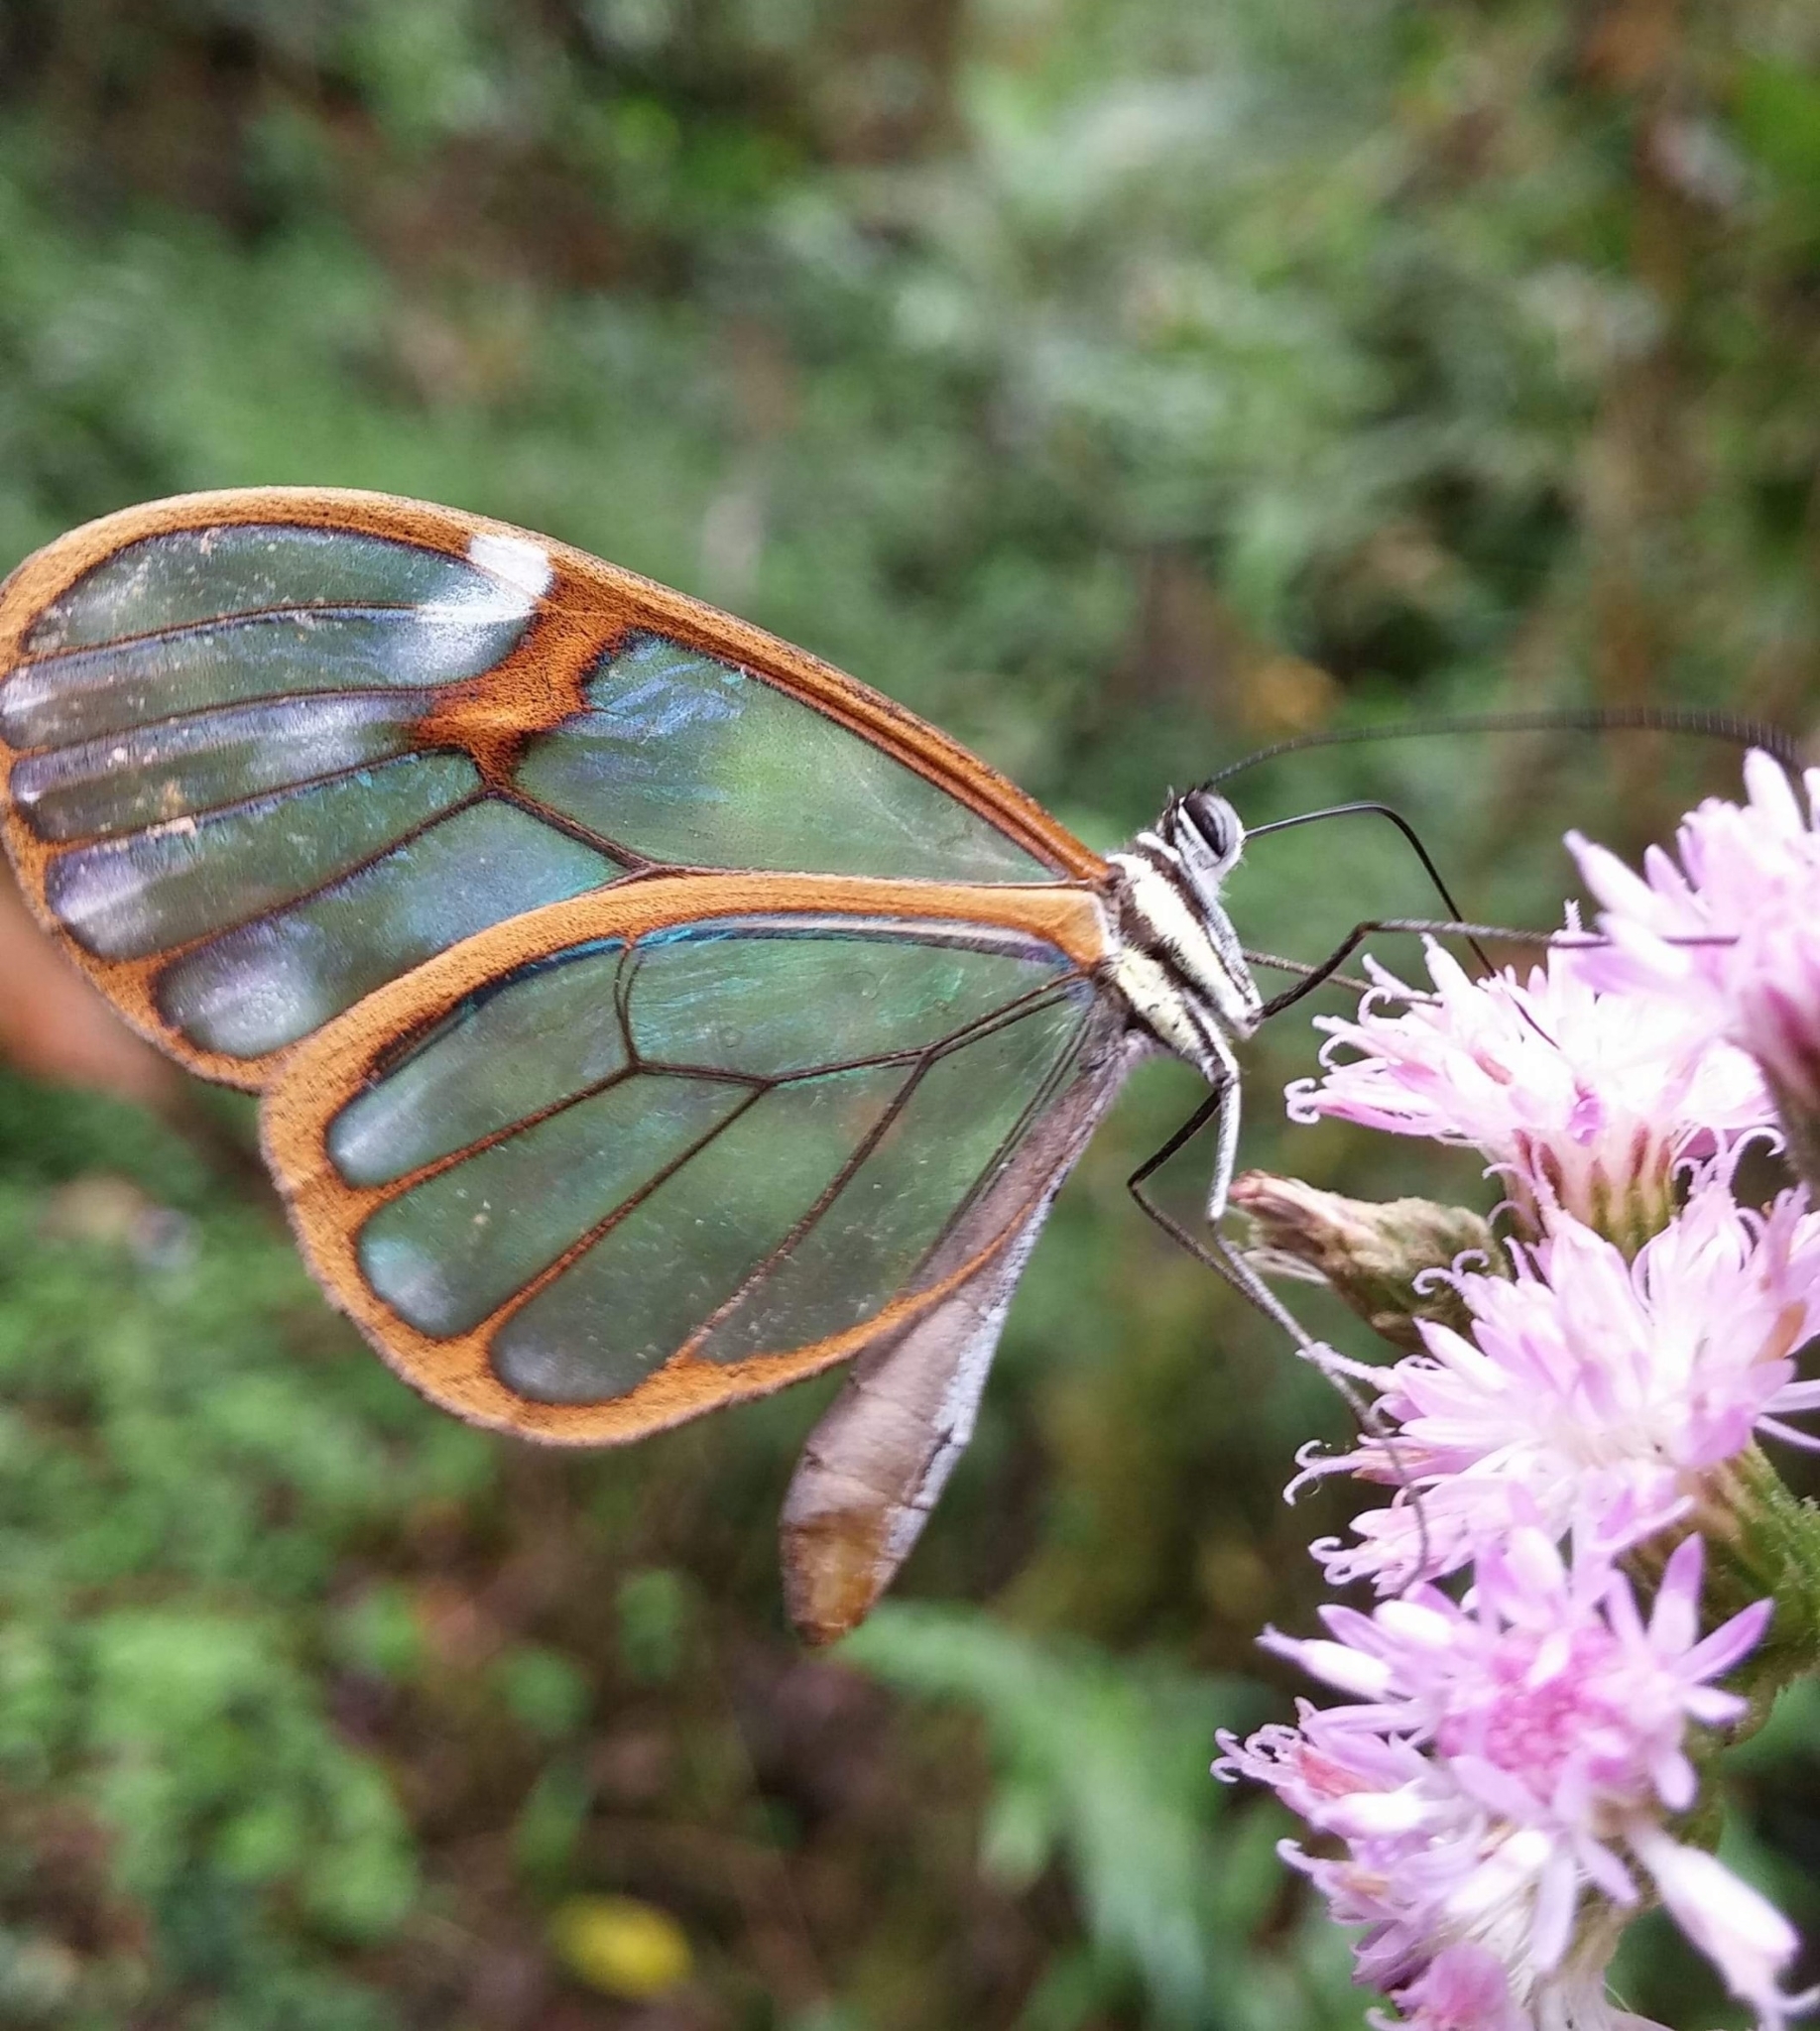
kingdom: Animalia
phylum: Arthropoda
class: Insecta
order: Lepidoptera
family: Nymphalidae
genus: Hypomenitis
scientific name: Hypomenitis
